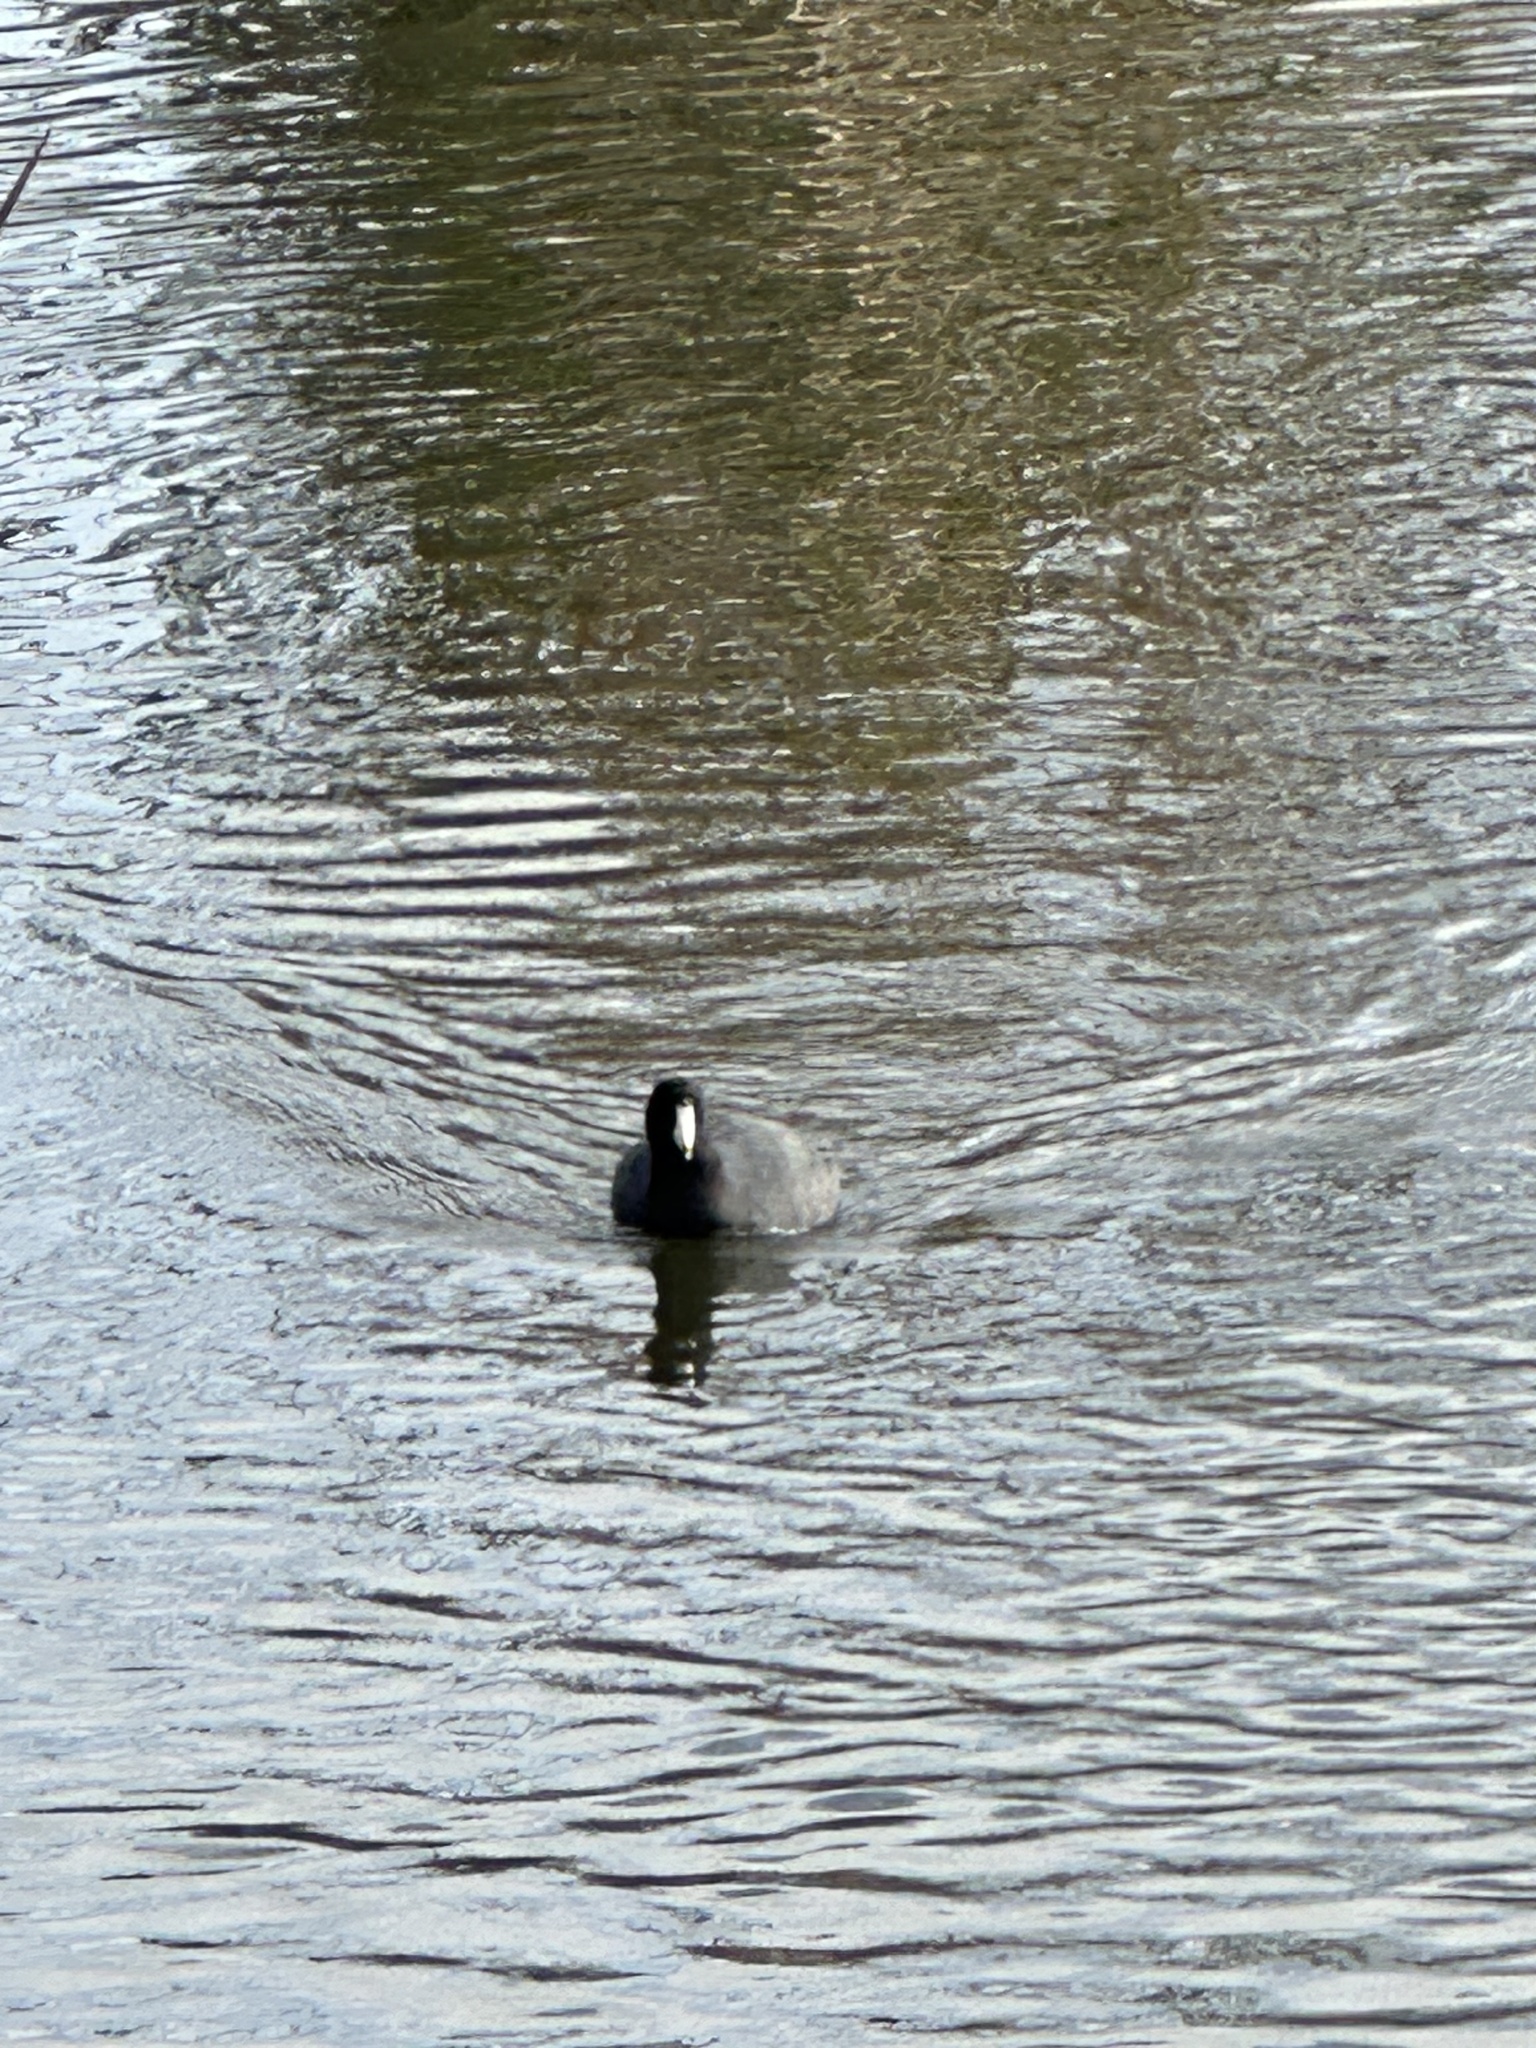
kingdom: Animalia
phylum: Chordata
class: Aves
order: Gruiformes
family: Rallidae
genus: Fulica
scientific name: Fulica americana
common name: American coot
